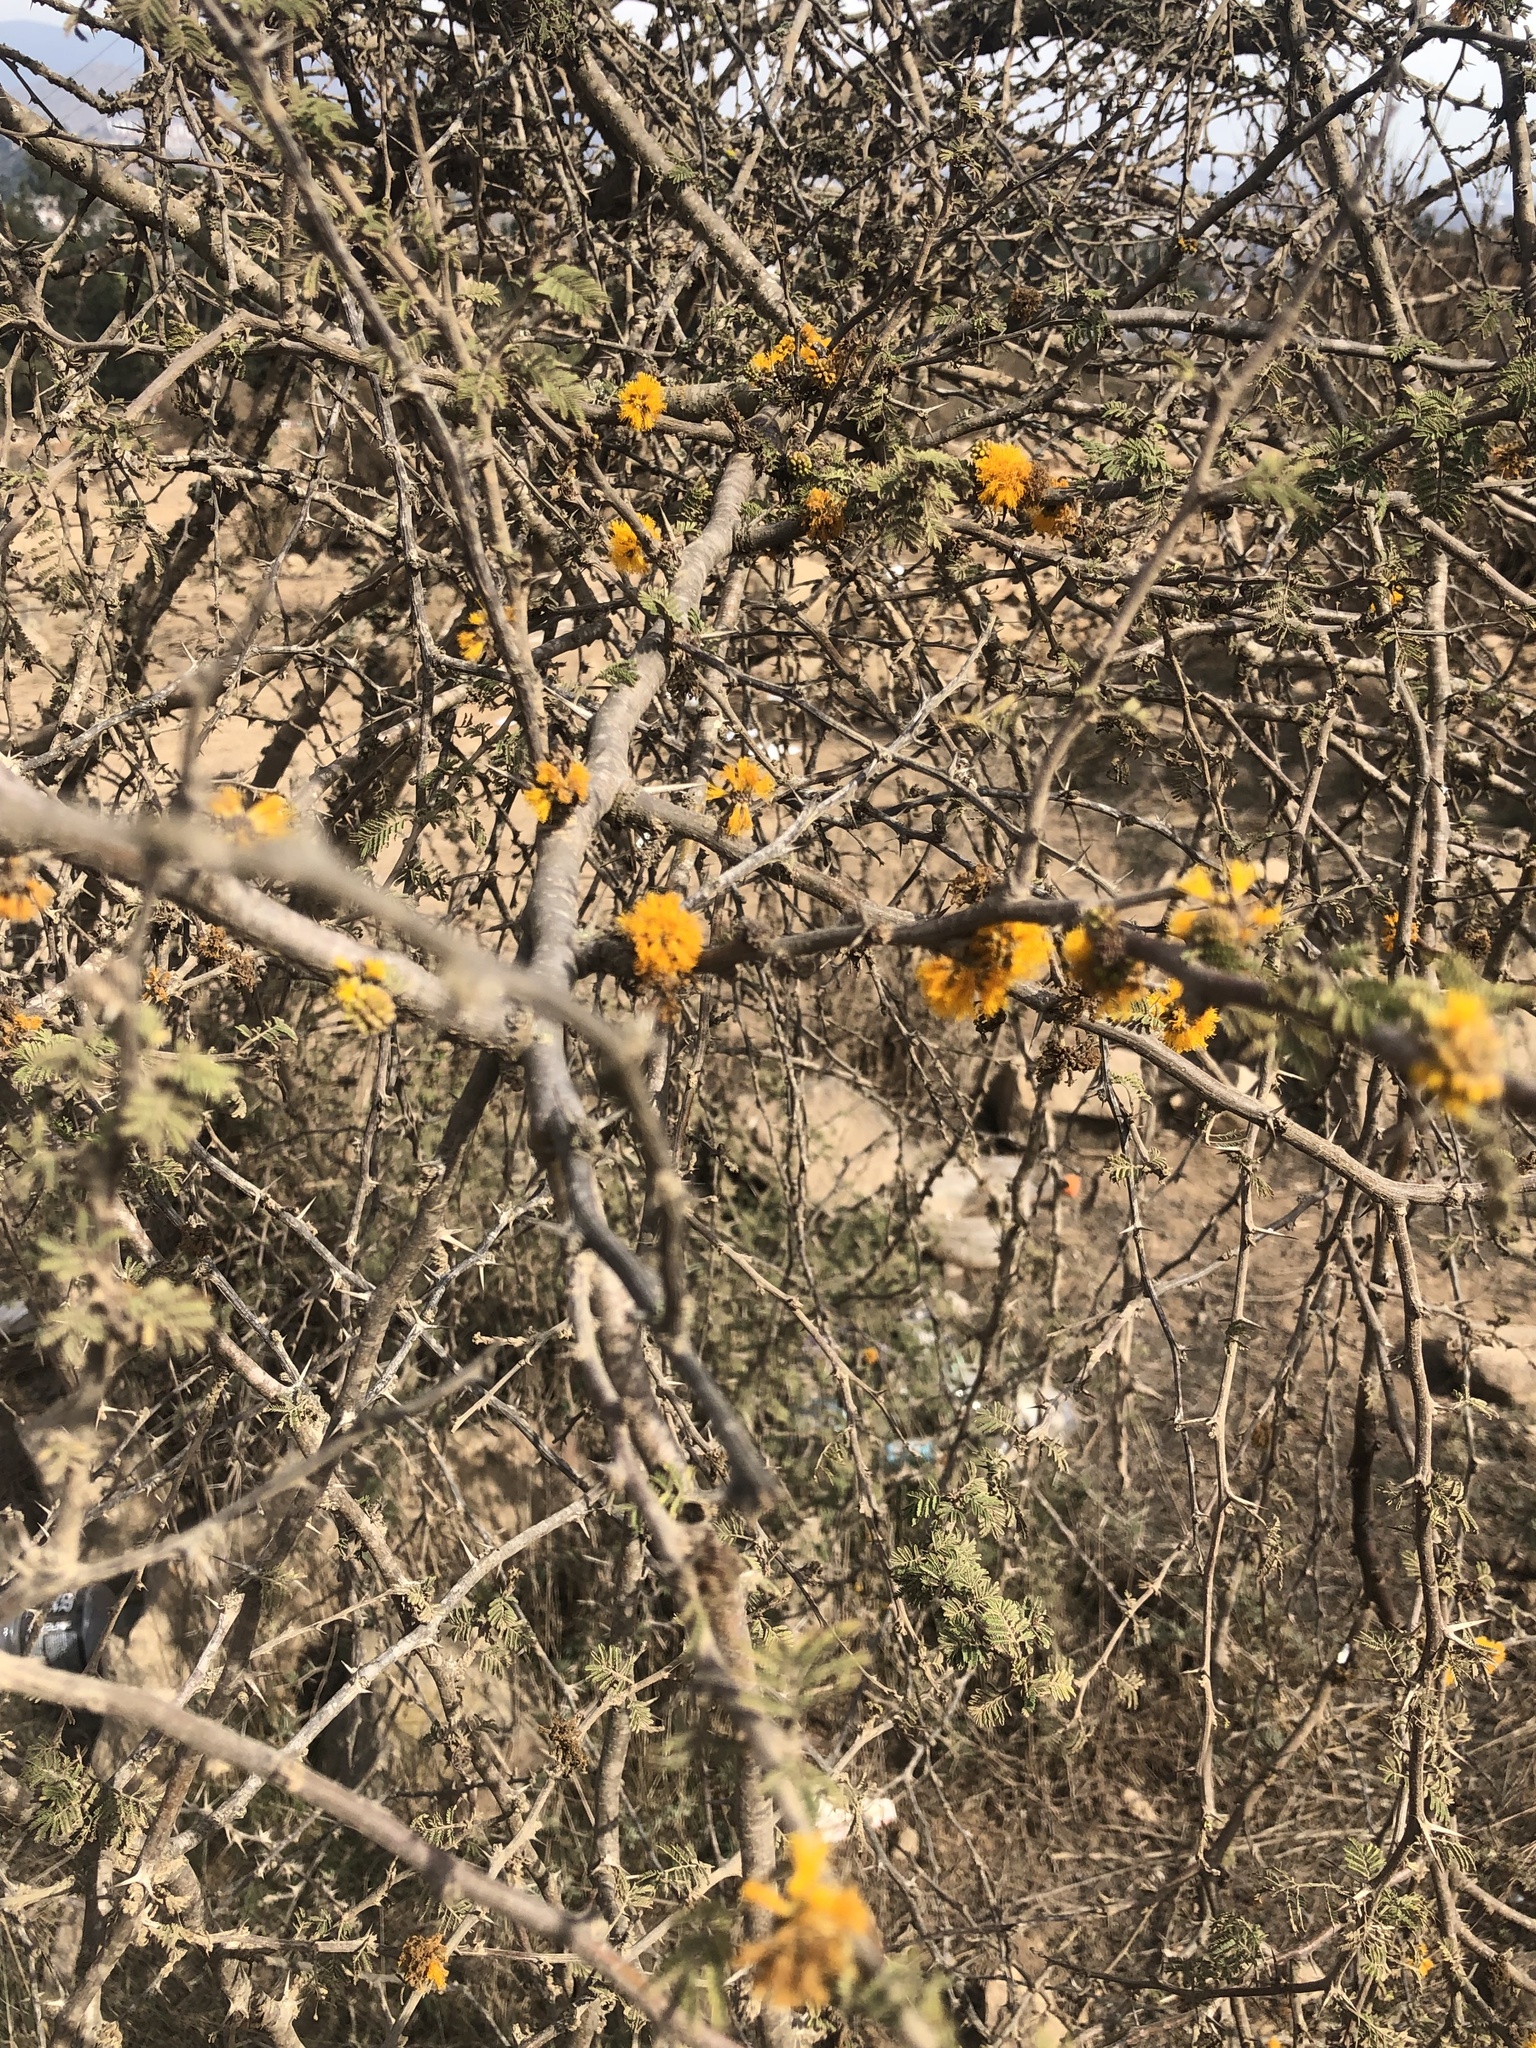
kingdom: Plantae
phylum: Tracheophyta
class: Magnoliopsida
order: Fabales
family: Fabaceae
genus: Vachellia
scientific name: Vachellia caven
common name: Roman cassie
